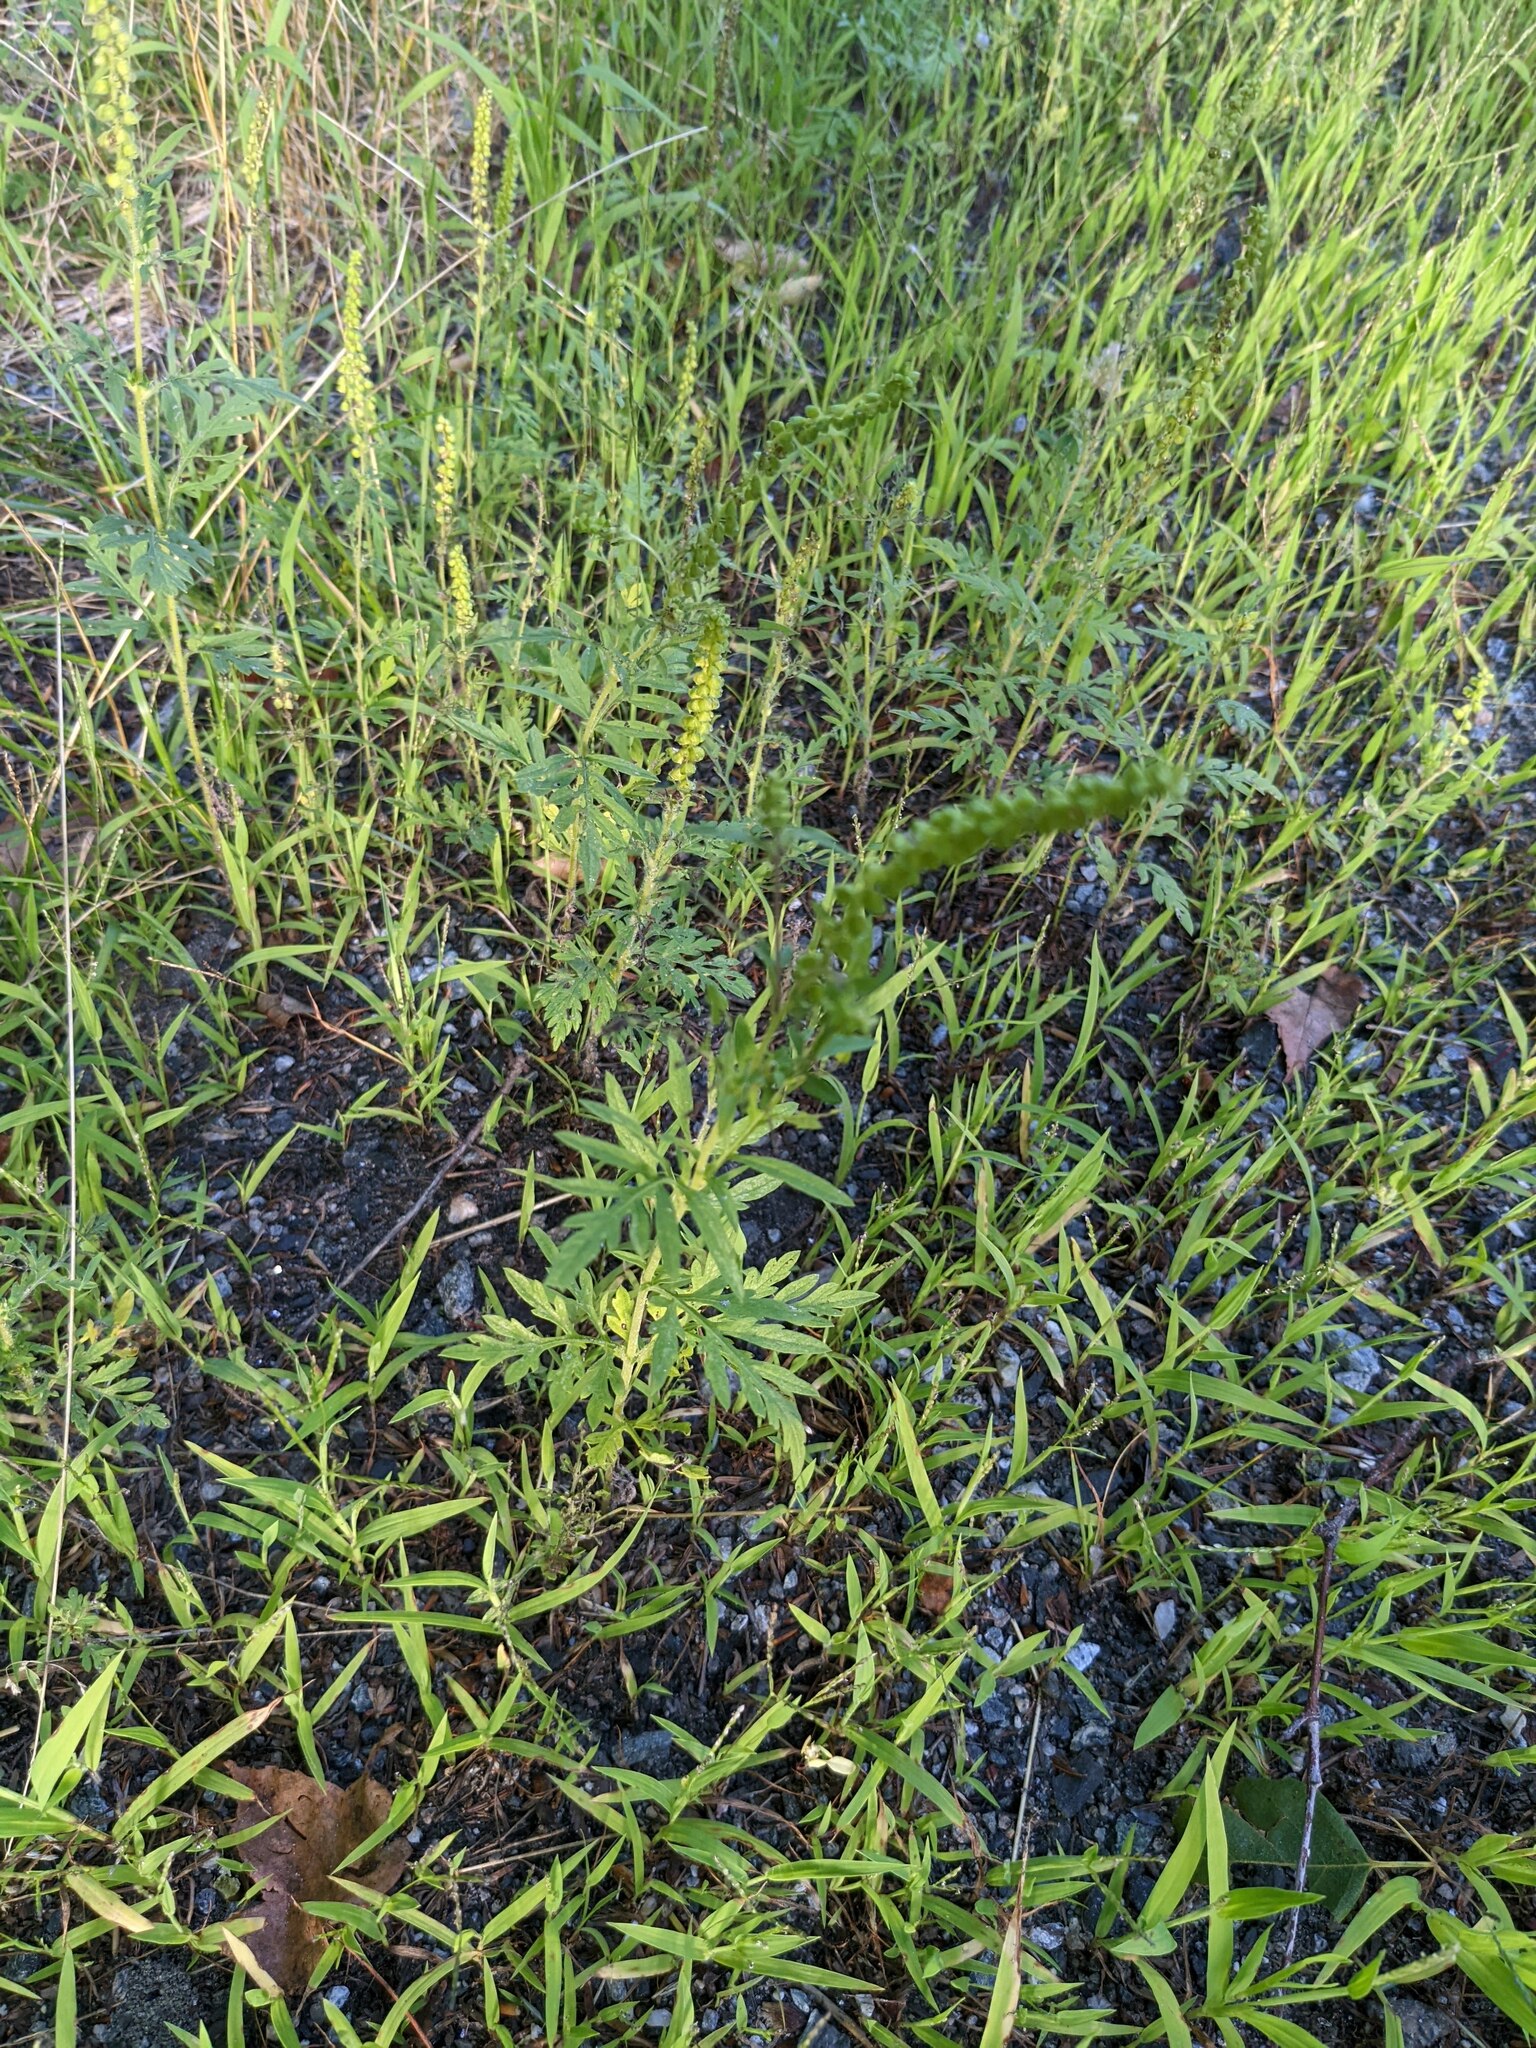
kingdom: Plantae
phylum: Tracheophyta
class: Magnoliopsida
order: Asterales
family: Asteraceae
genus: Ambrosia
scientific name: Ambrosia artemisiifolia
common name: Annual ragweed
